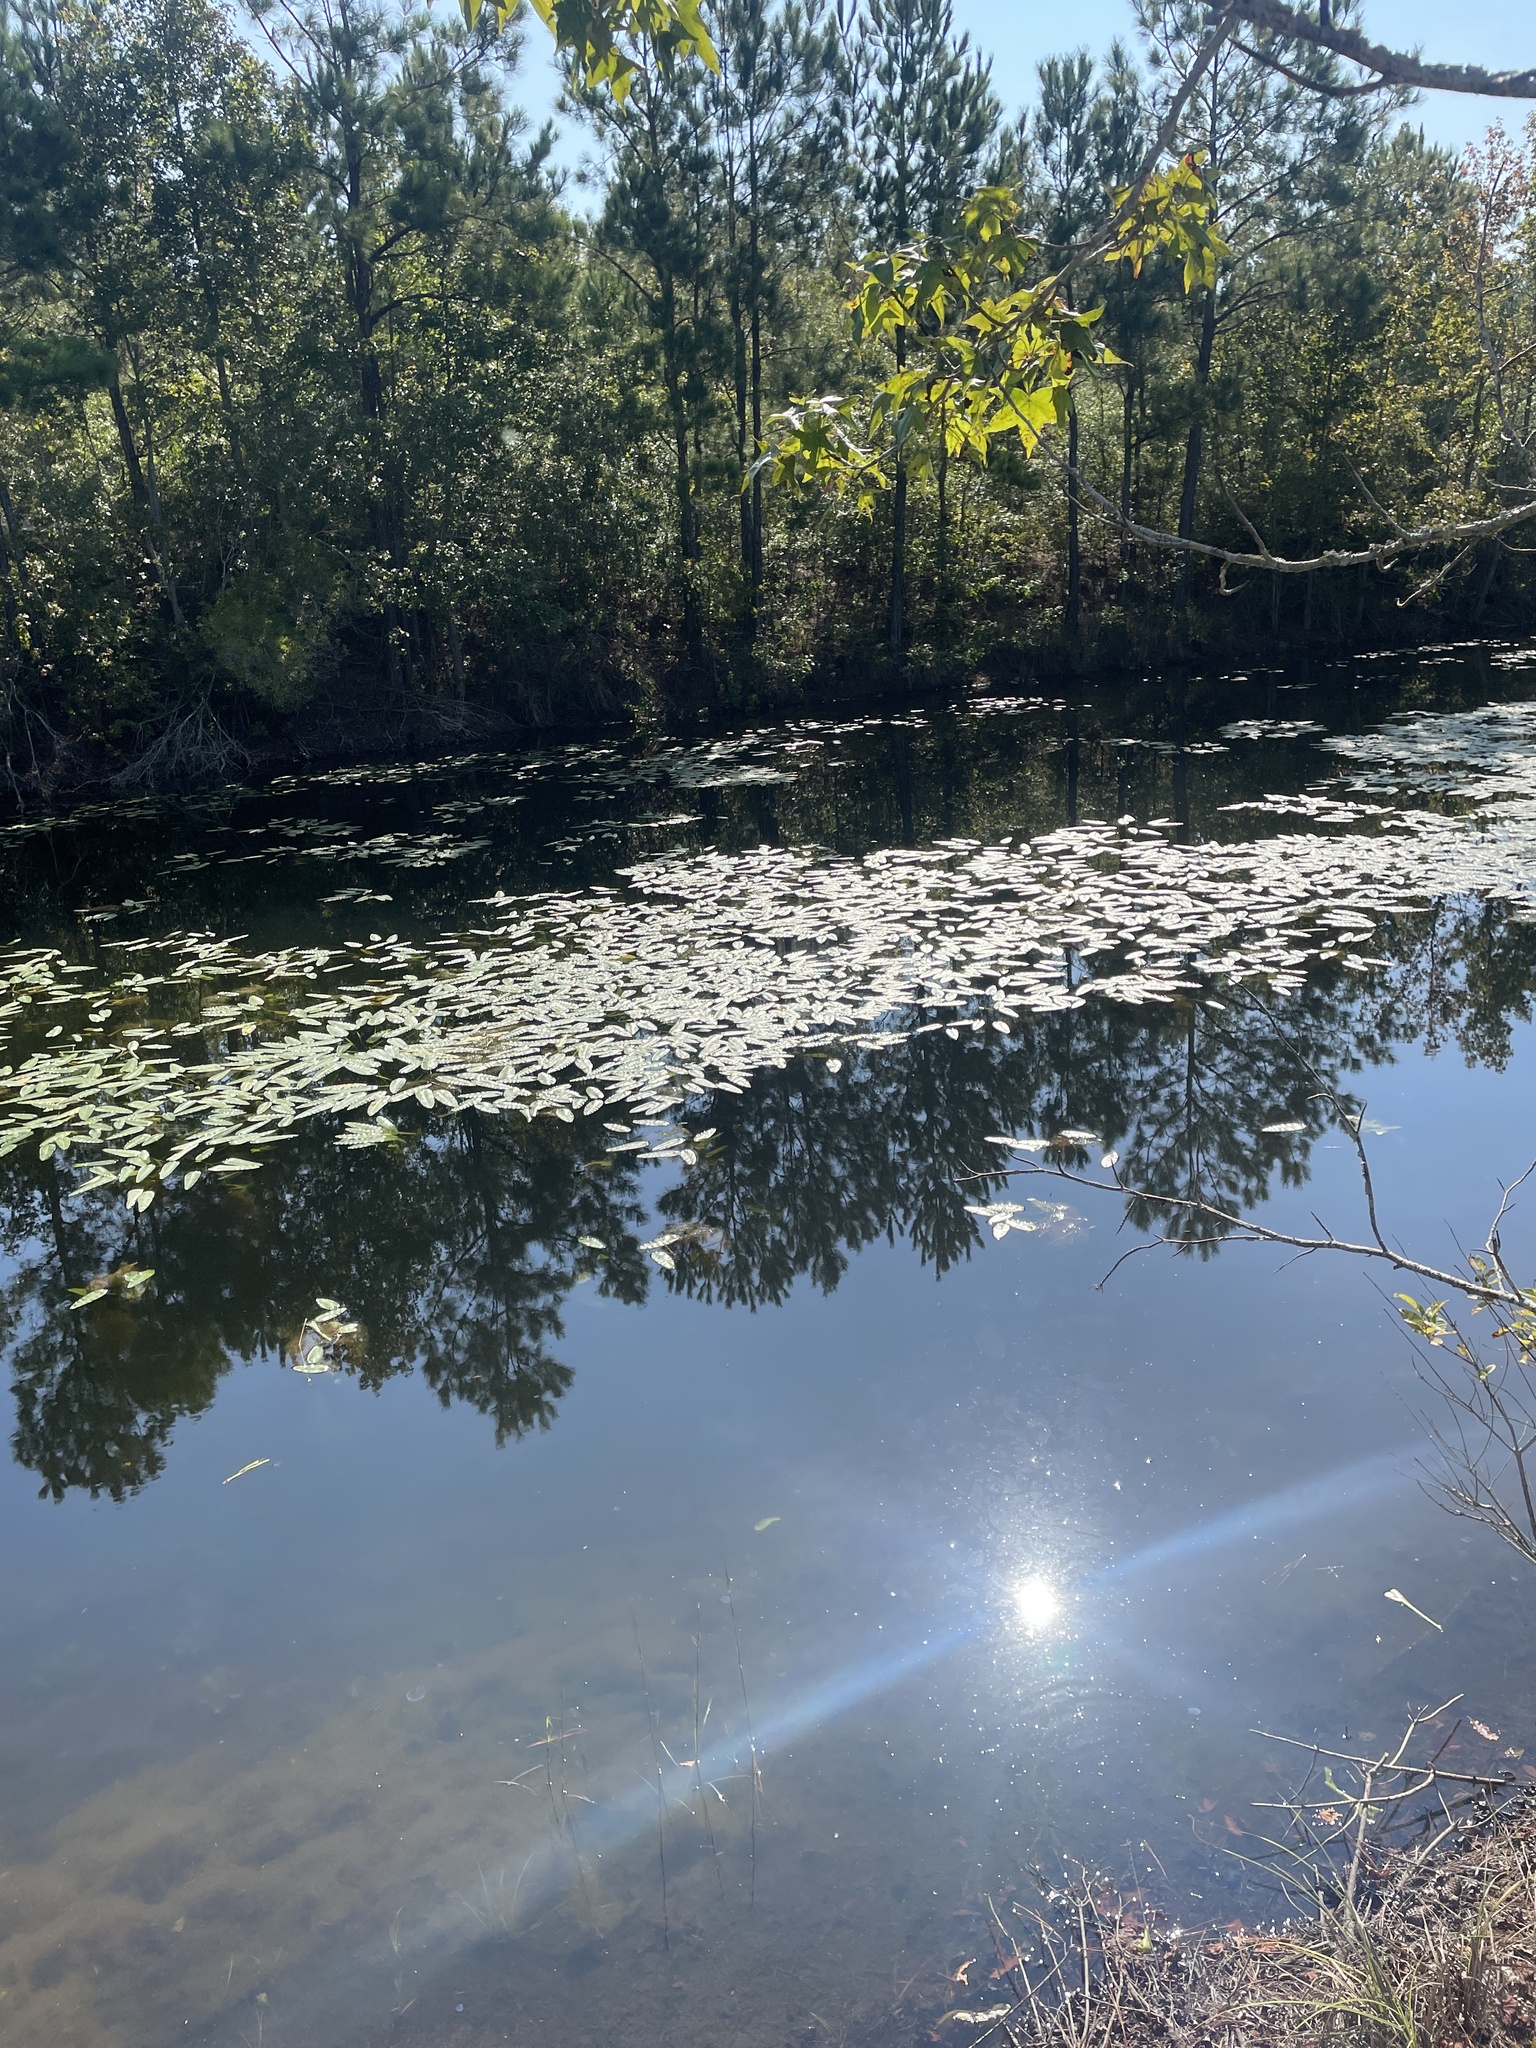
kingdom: Plantae
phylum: Tracheophyta
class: Magnoliopsida
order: Nymphaeales
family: Nymphaeaceae
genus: Nuphar
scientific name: Nuphar sagittifolia
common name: Cape fear spatterdock
